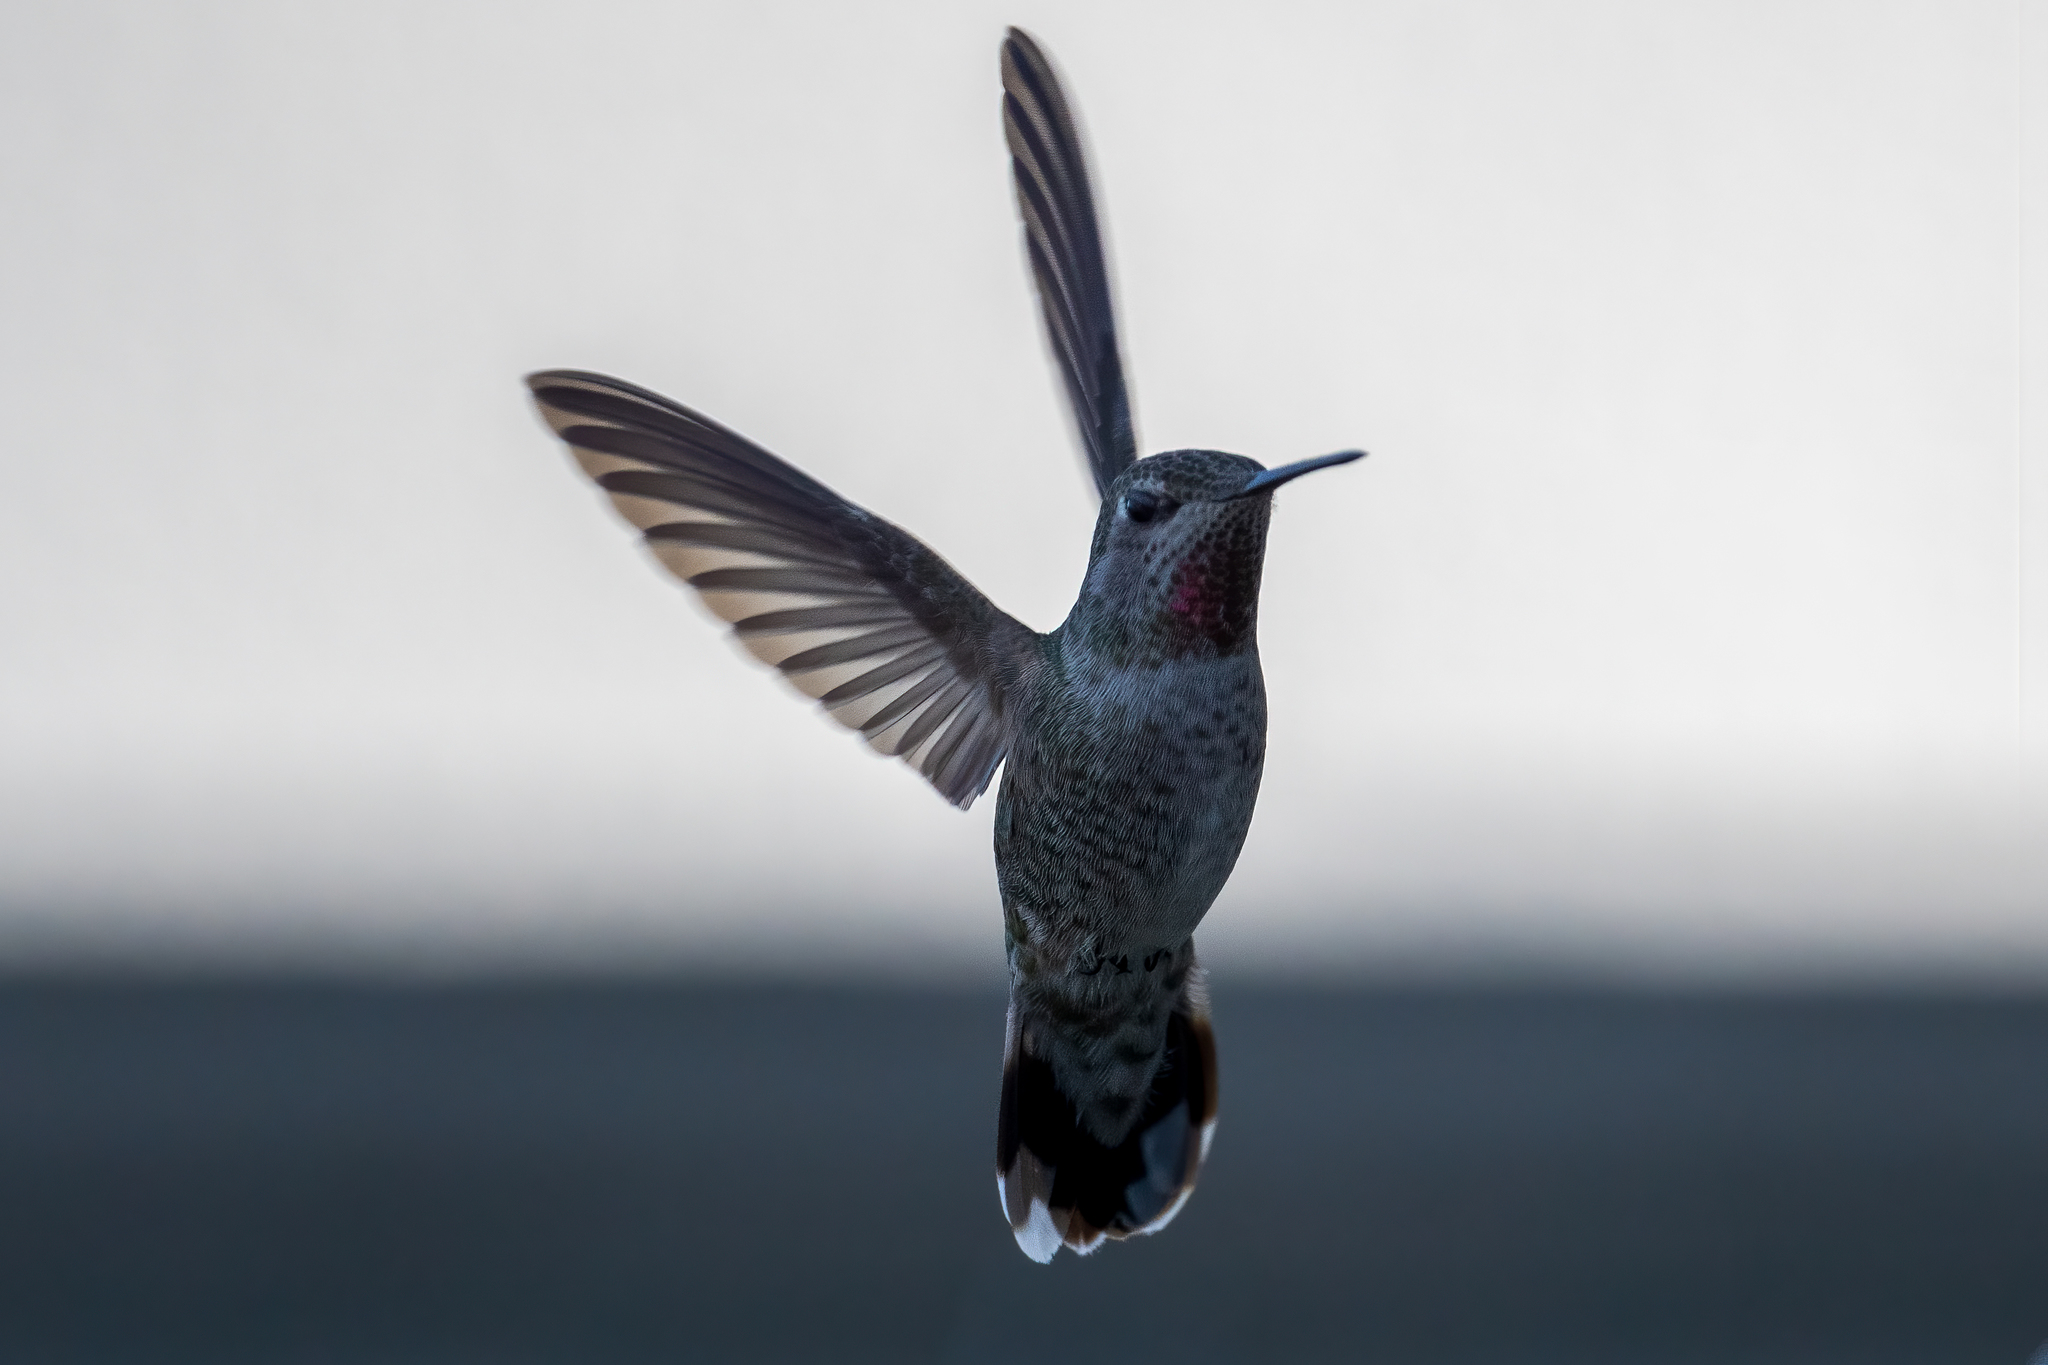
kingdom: Animalia
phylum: Chordata
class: Aves
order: Apodiformes
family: Trochilidae
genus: Calypte
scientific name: Calypte anna
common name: Anna's hummingbird
